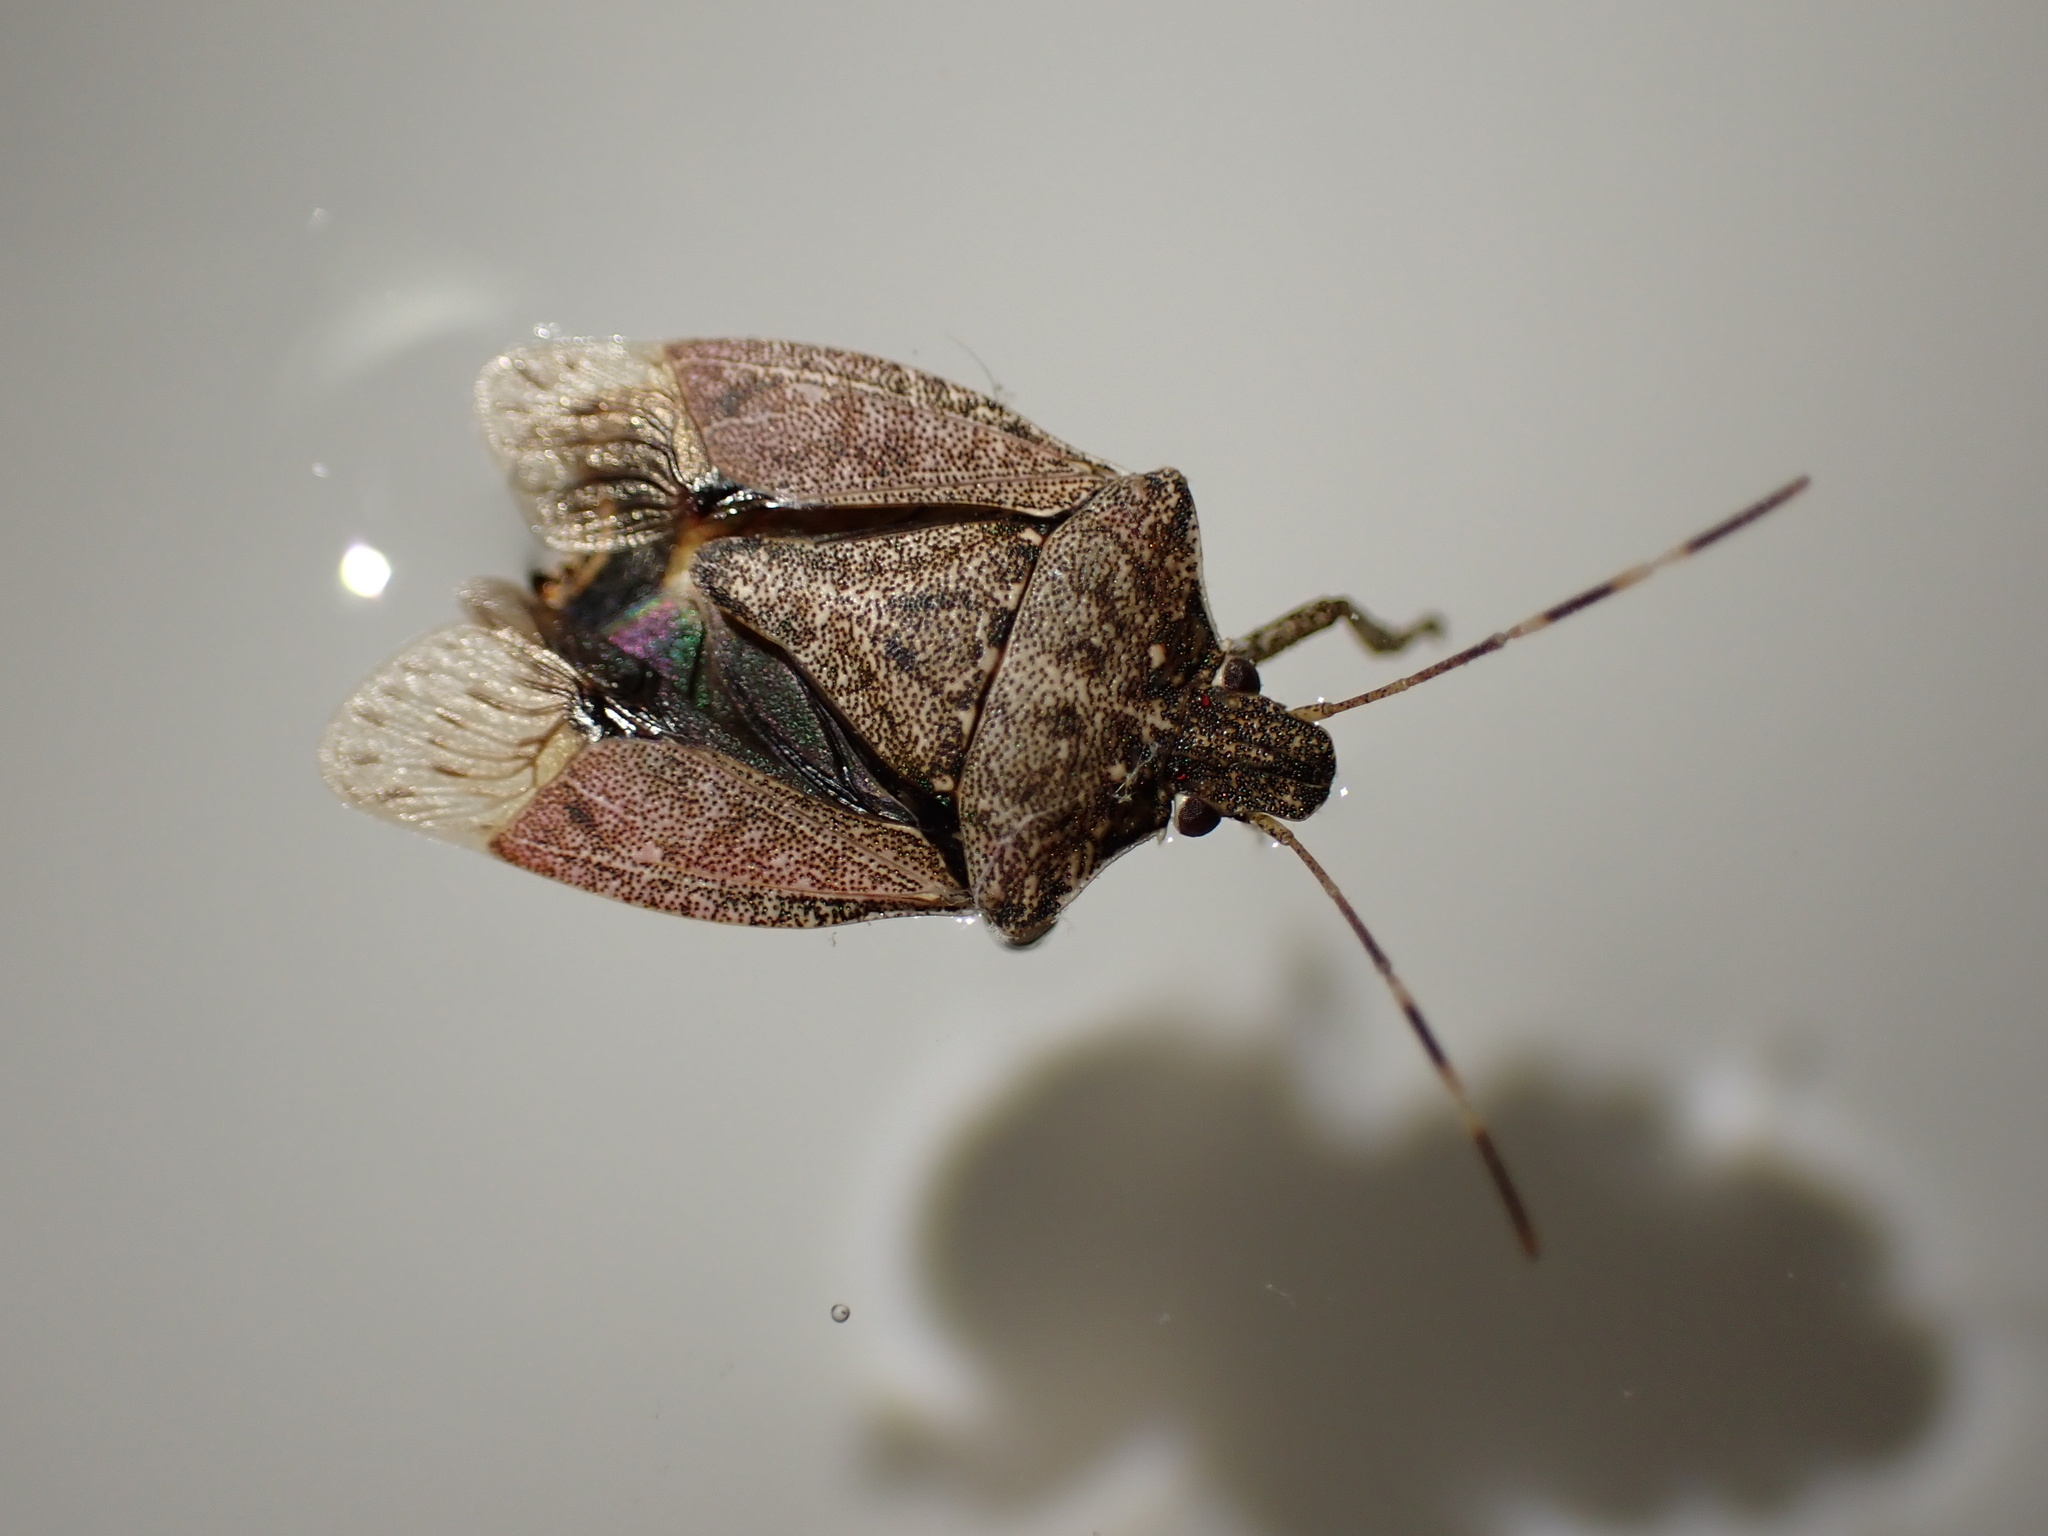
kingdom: Animalia
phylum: Arthropoda
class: Insecta
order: Hemiptera
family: Pentatomidae
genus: Halyomorpha
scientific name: Halyomorpha halys
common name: Brown marmorated stink bug
